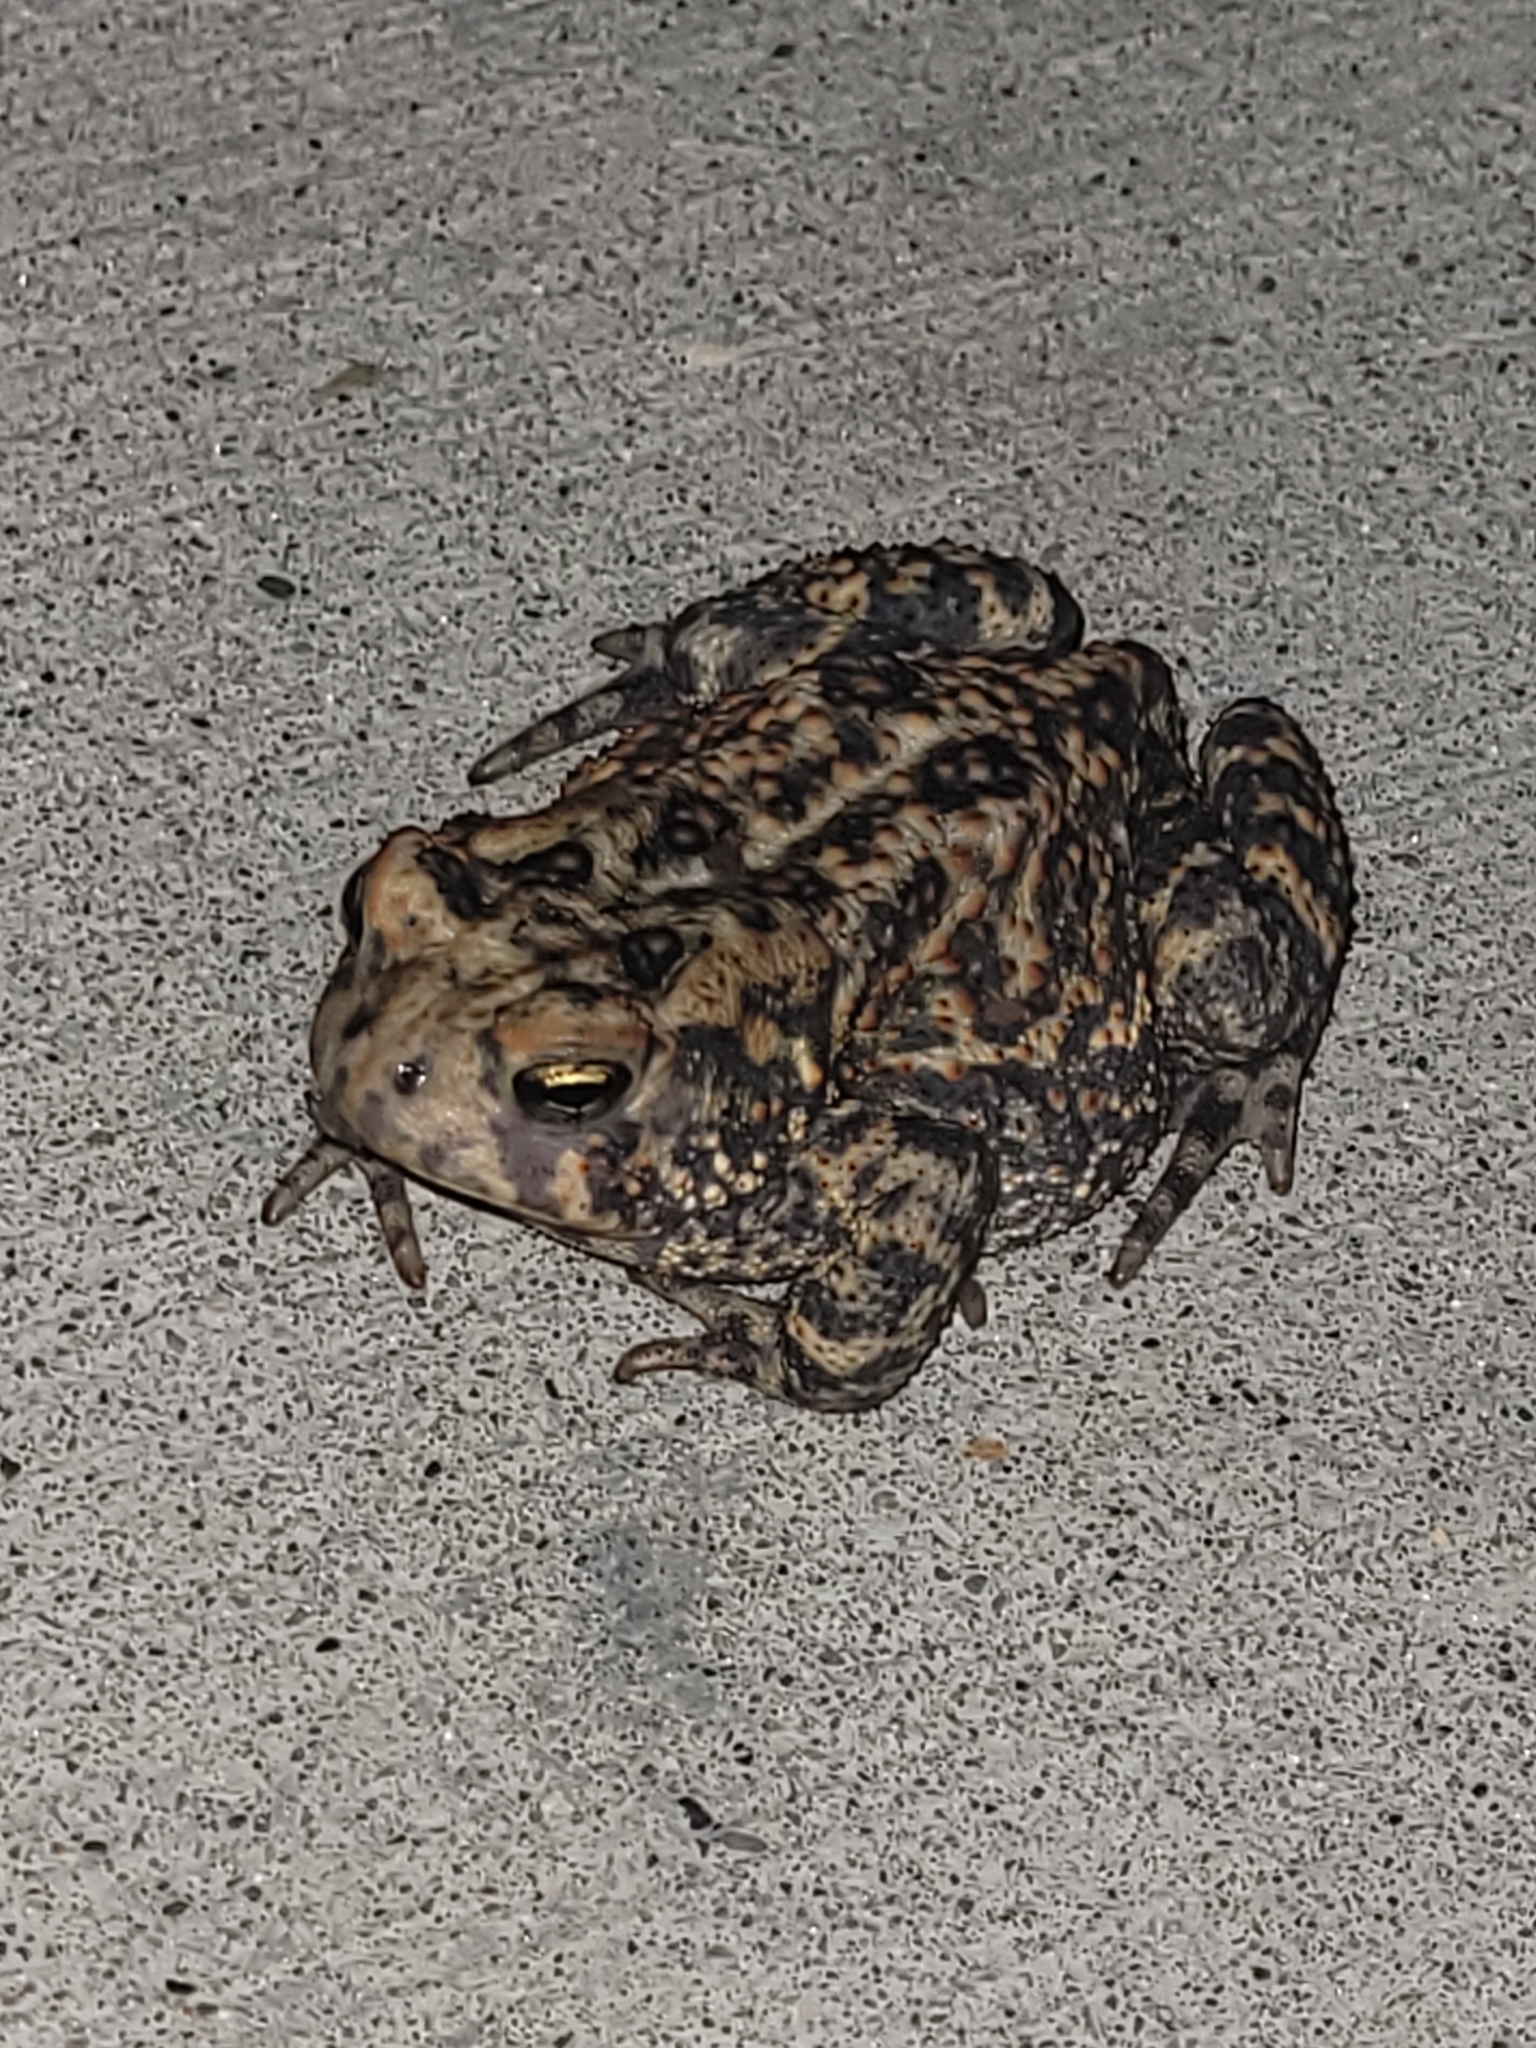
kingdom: Animalia
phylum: Chordata
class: Amphibia
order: Anura
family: Bufonidae
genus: Anaxyrus
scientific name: Anaxyrus americanus
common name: American toad
